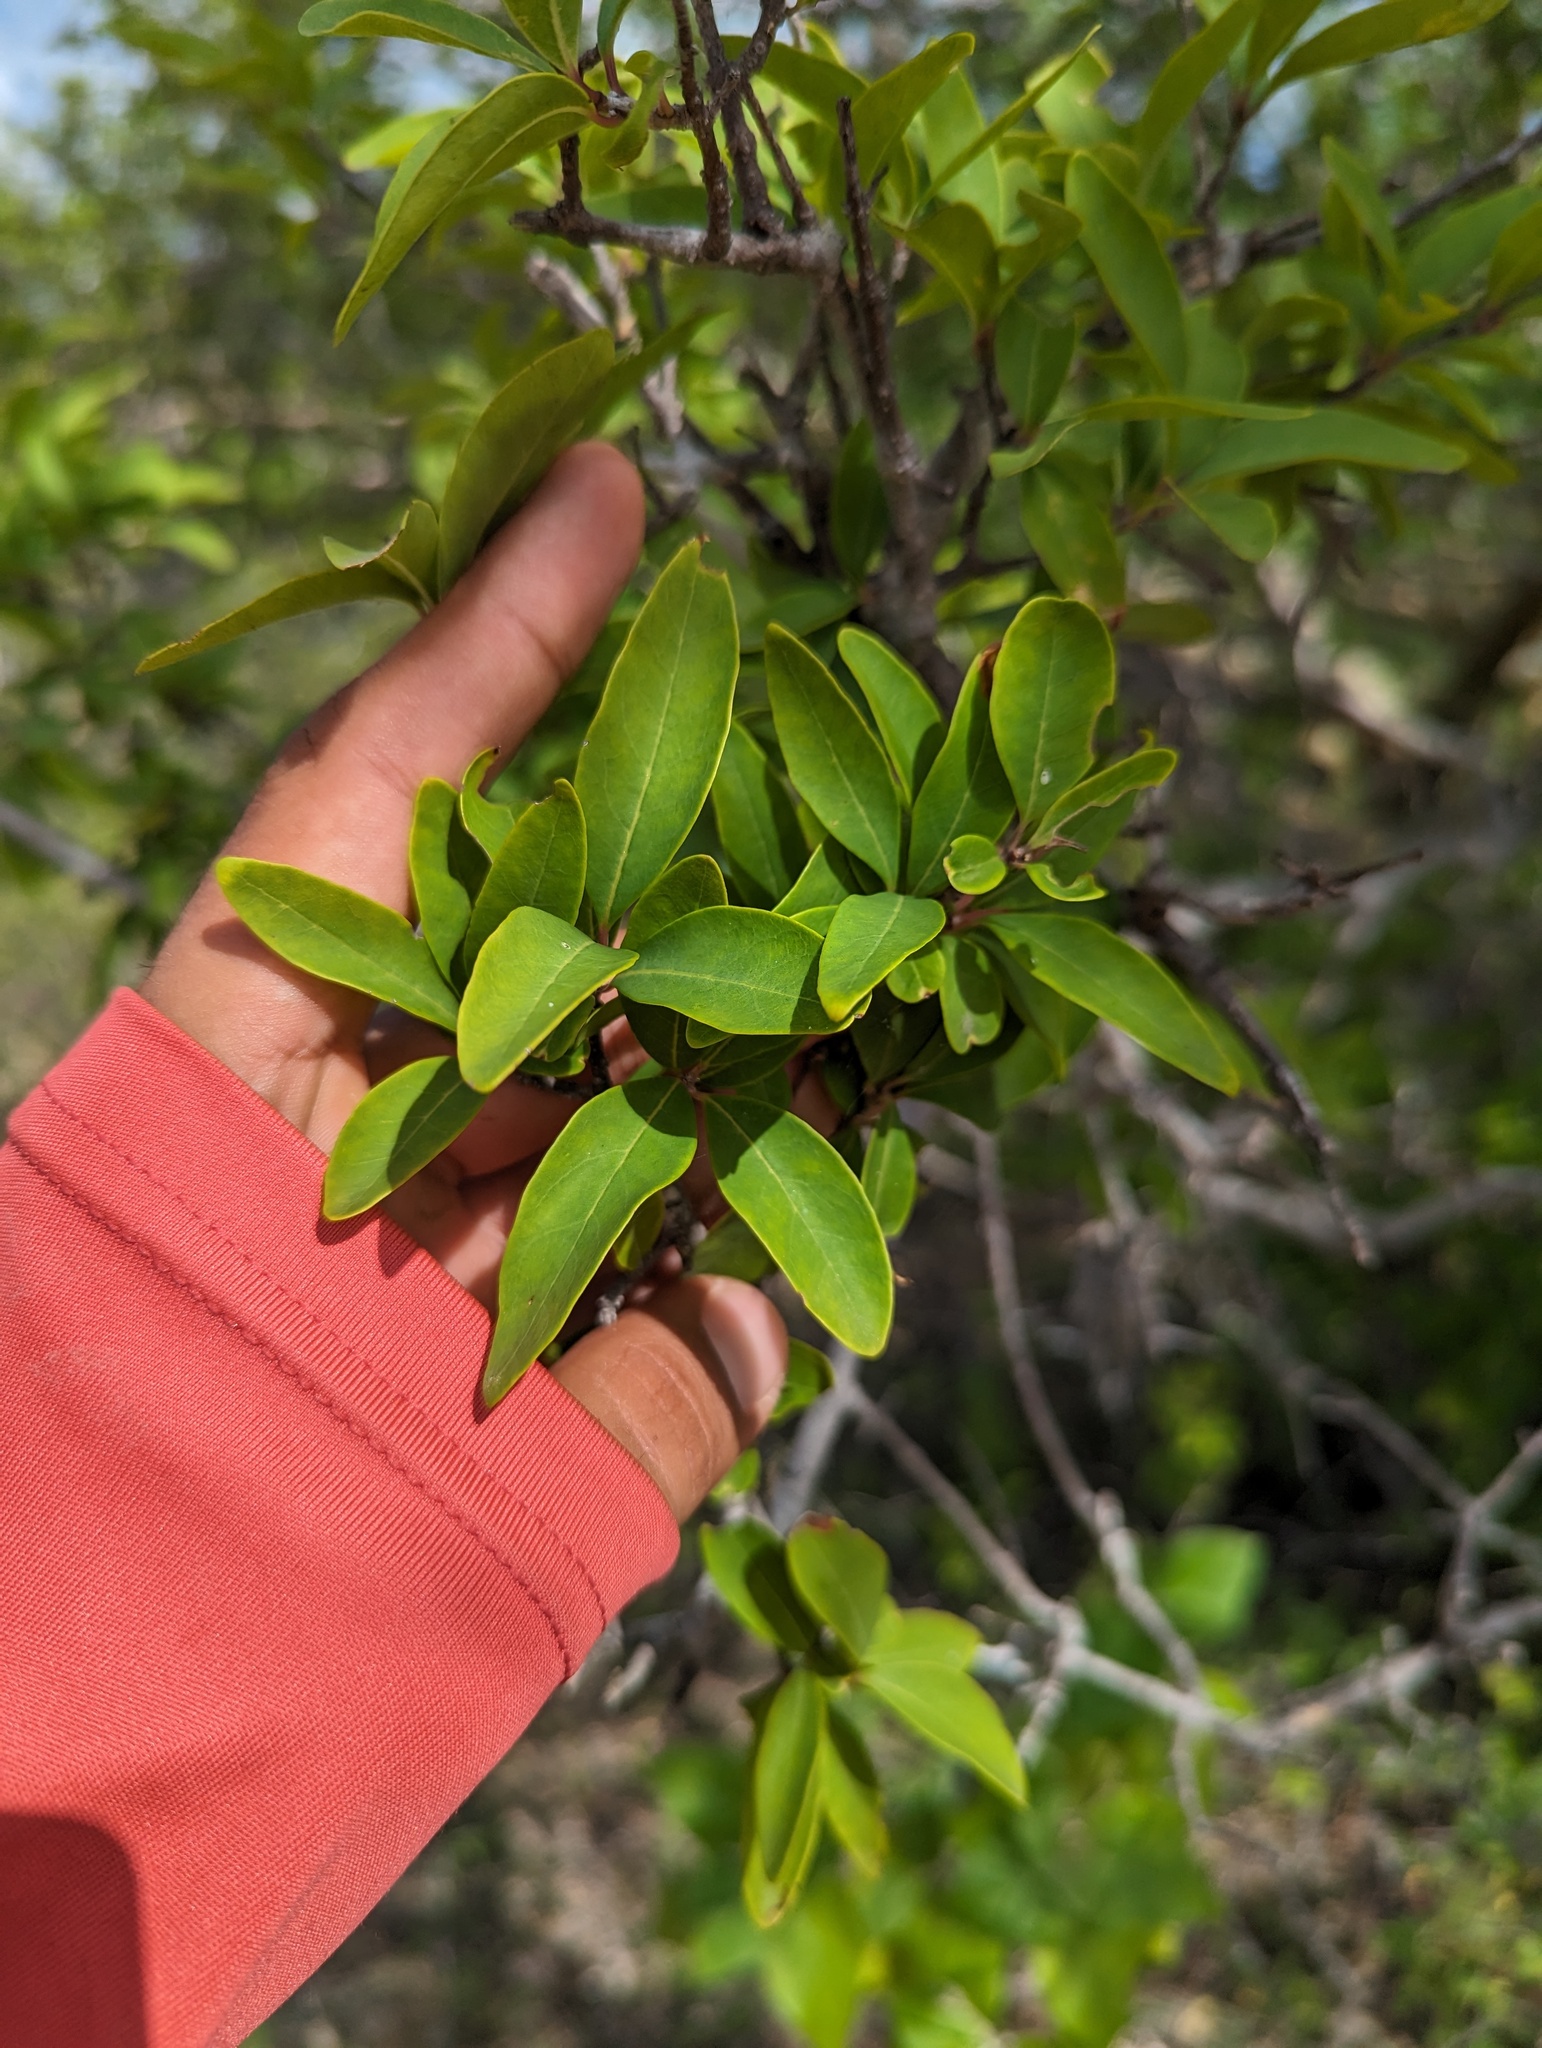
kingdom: Plantae
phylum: Tracheophyta
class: Magnoliopsida
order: Lamiales
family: Oleaceae
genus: Forestiera
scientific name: Forestiera macrocarpa
